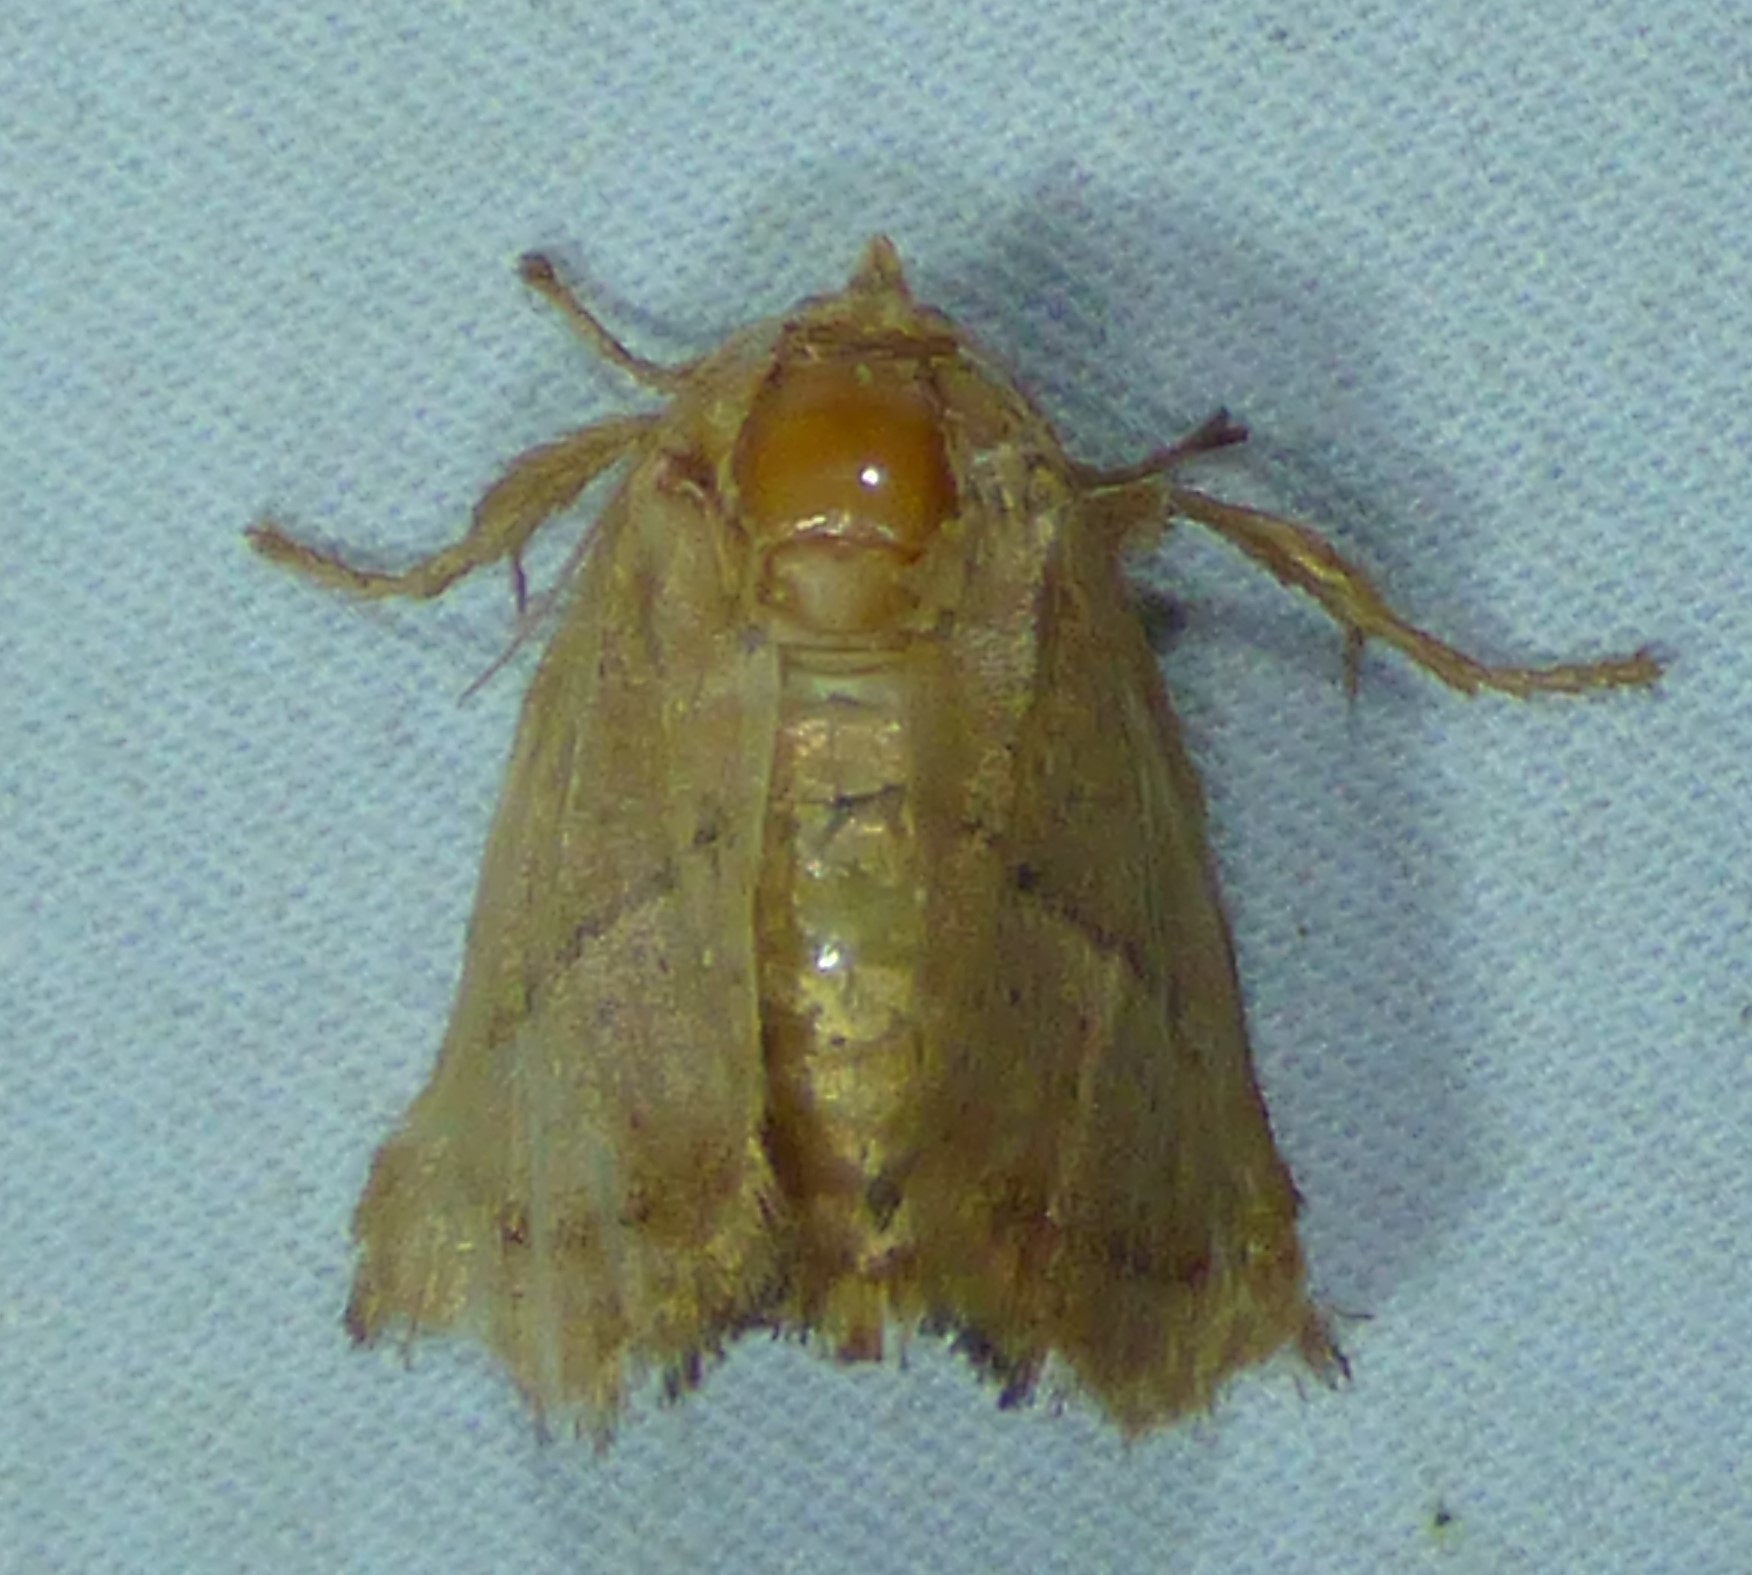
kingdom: Animalia
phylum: Arthropoda
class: Insecta
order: Lepidoptera
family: Limacodidae
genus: Natada
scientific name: Natada nasoni
